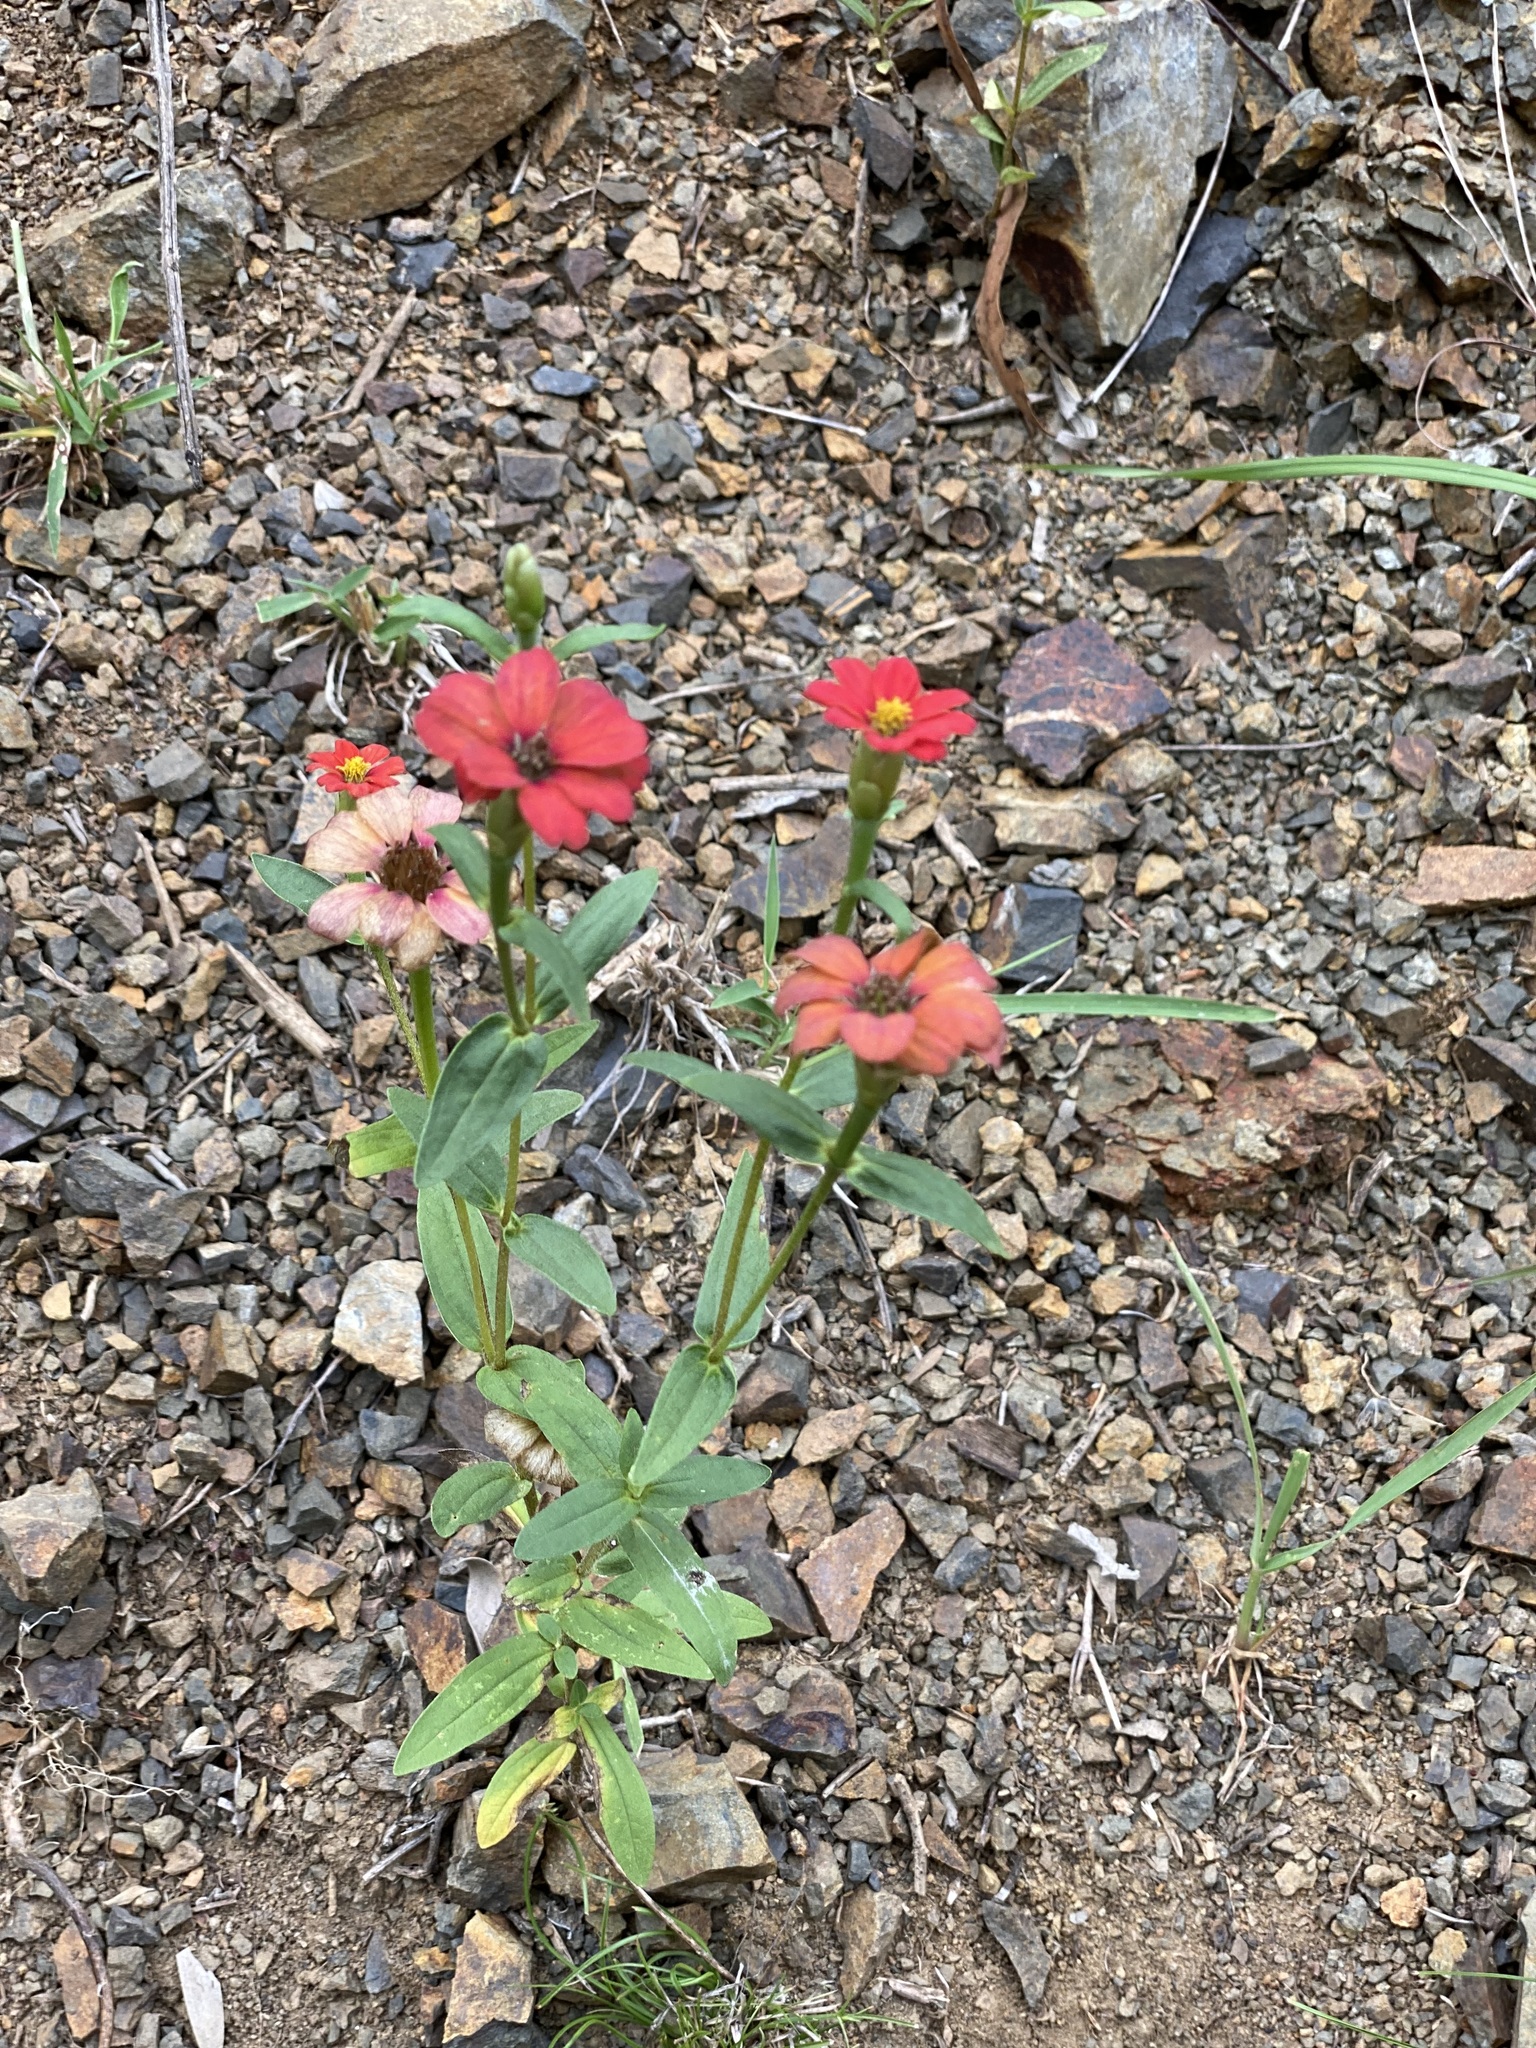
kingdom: Plantae
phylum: Tracheophyta
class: Magnoliopsida
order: Asterales
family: Asteraceae
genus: Zinnia
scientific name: Zinnia peruviana
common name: Peruvian zinnia
